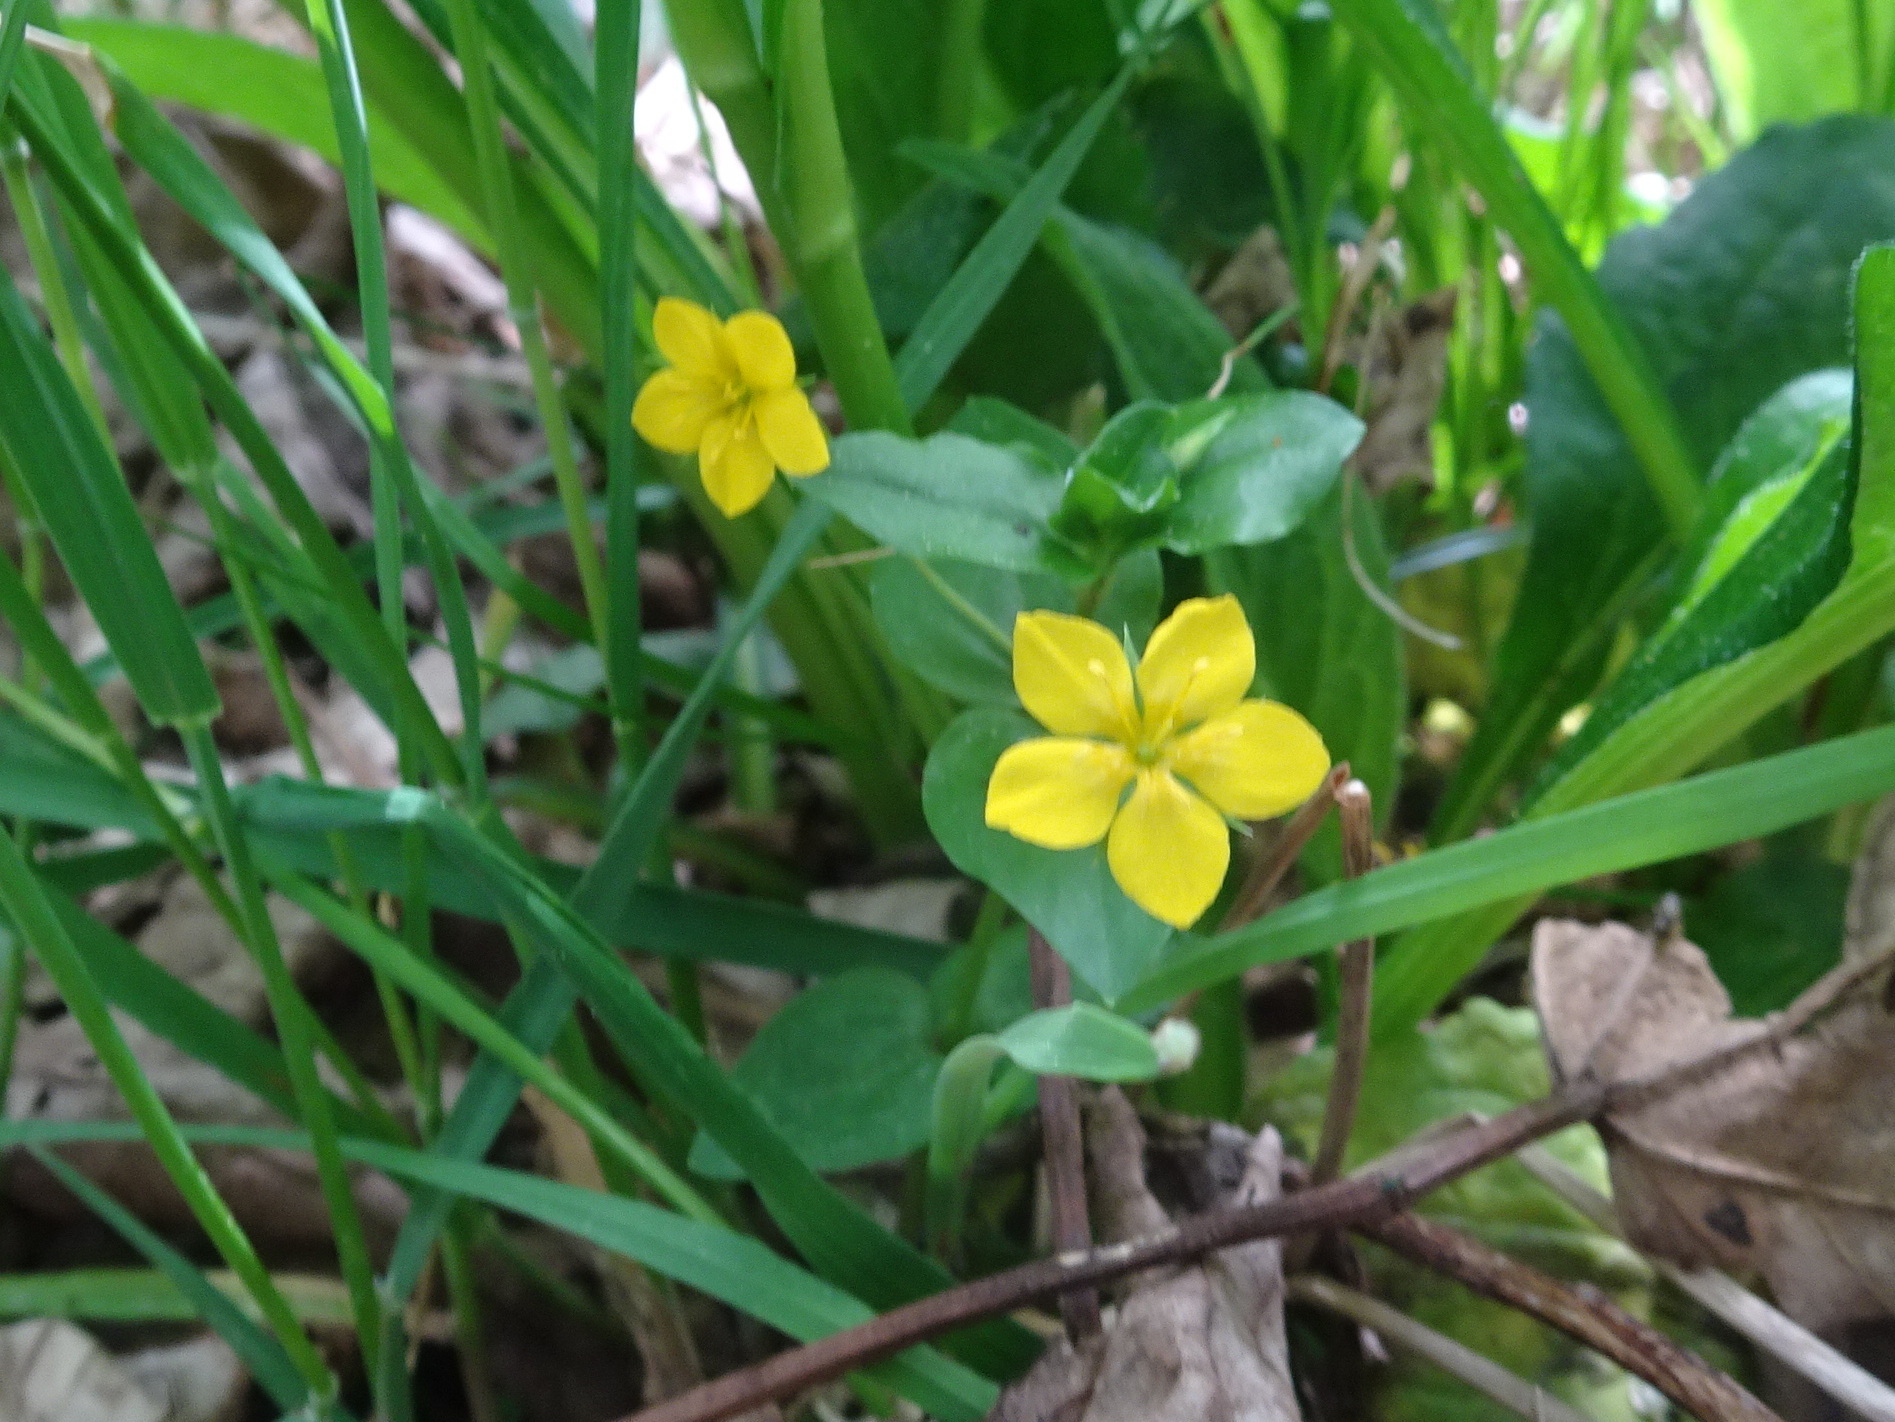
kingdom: Plantae
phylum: Tracheophyta
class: Magnoliopsida
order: Ericales
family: Primulaceae
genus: Lysimachia
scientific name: Lysimachia nemorum
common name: Yellow pimpernel
